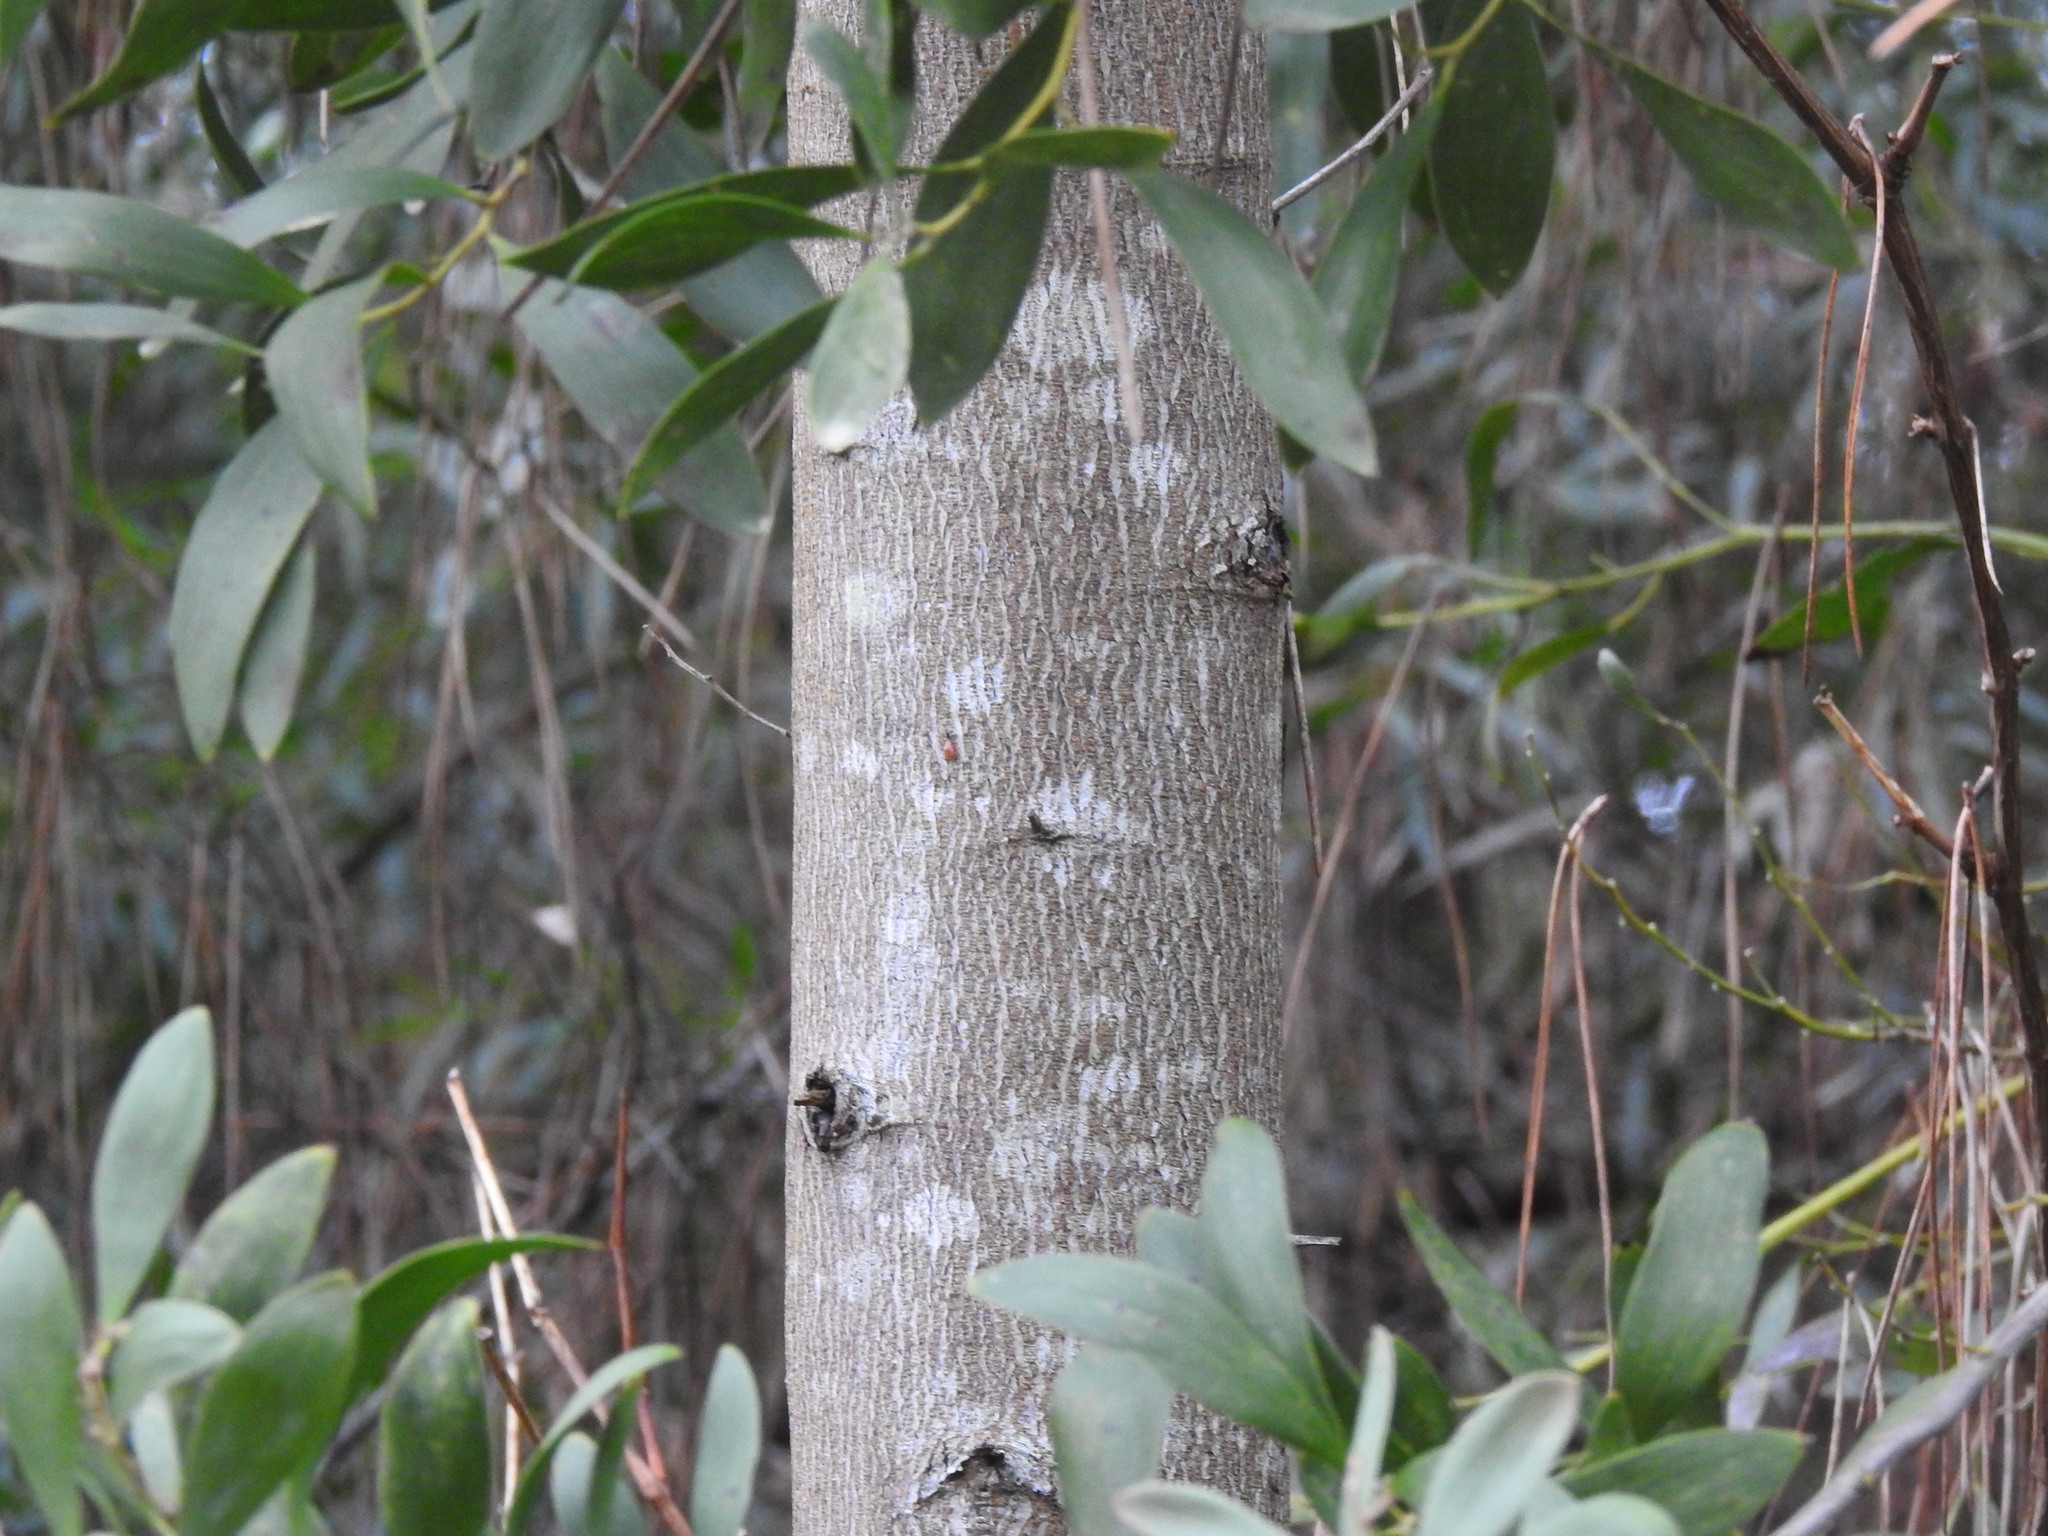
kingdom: Plantae
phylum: Tracheophyta
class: Magnoliopsida
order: Fabales
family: Fabaceae
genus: Acacia
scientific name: Acacia melanoxylon
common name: Blackwood
